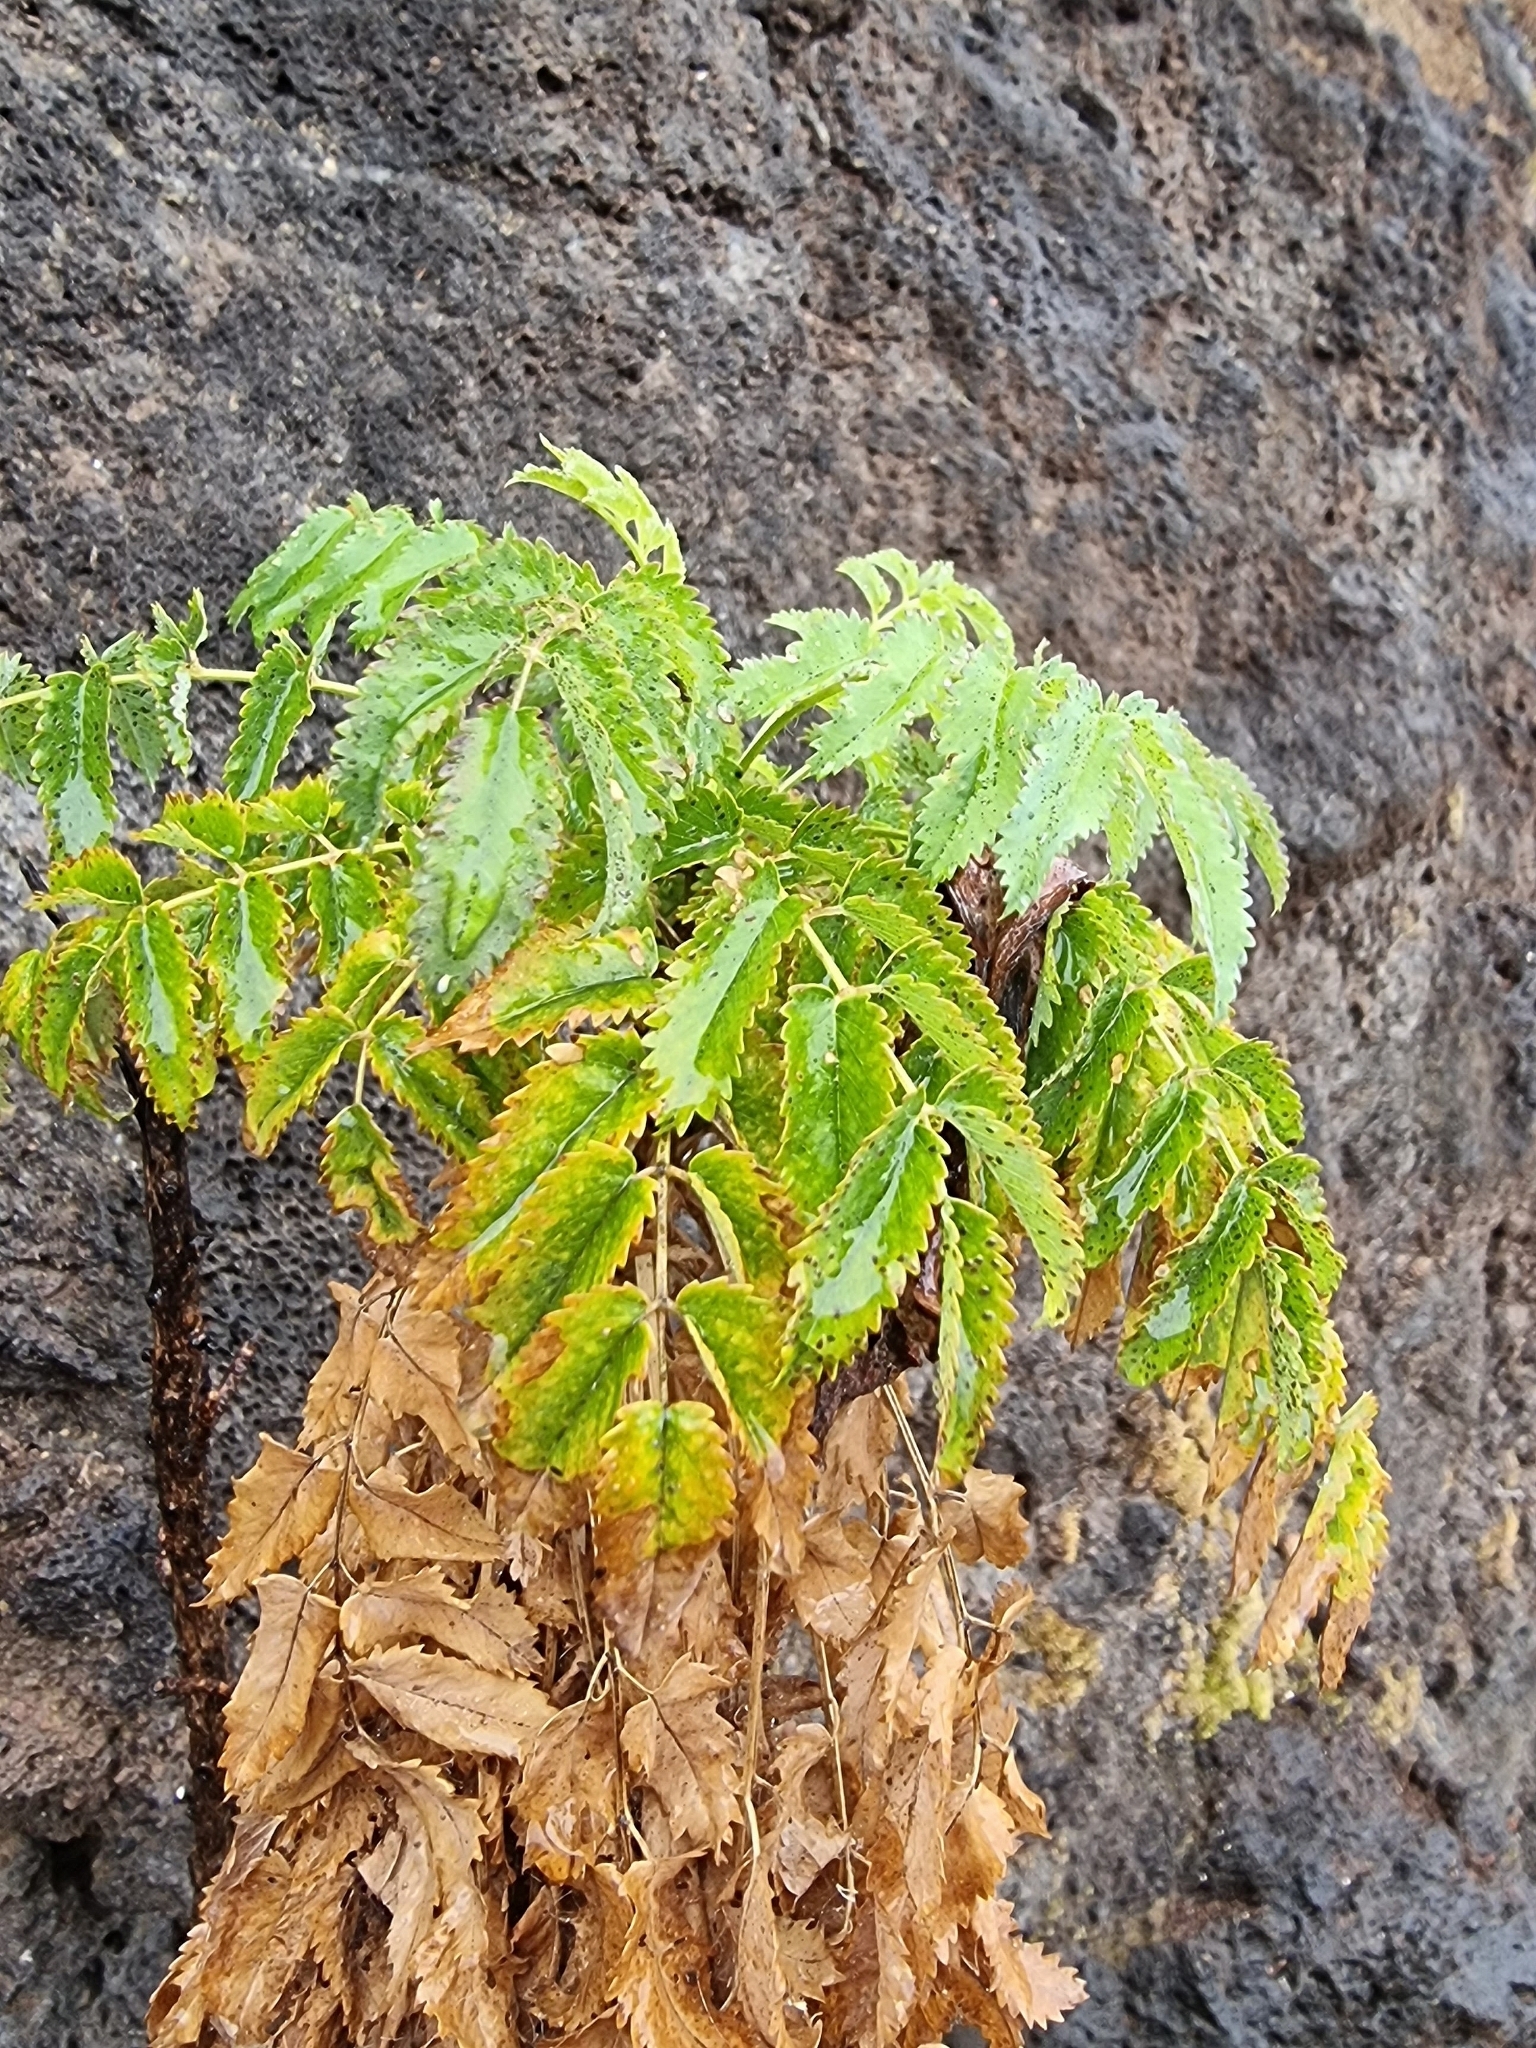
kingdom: Plantae
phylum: Tracheophyta
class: Magnoliopsida
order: Rosales
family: Rosaceae
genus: Marcetella
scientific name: Marcetella maderensis
